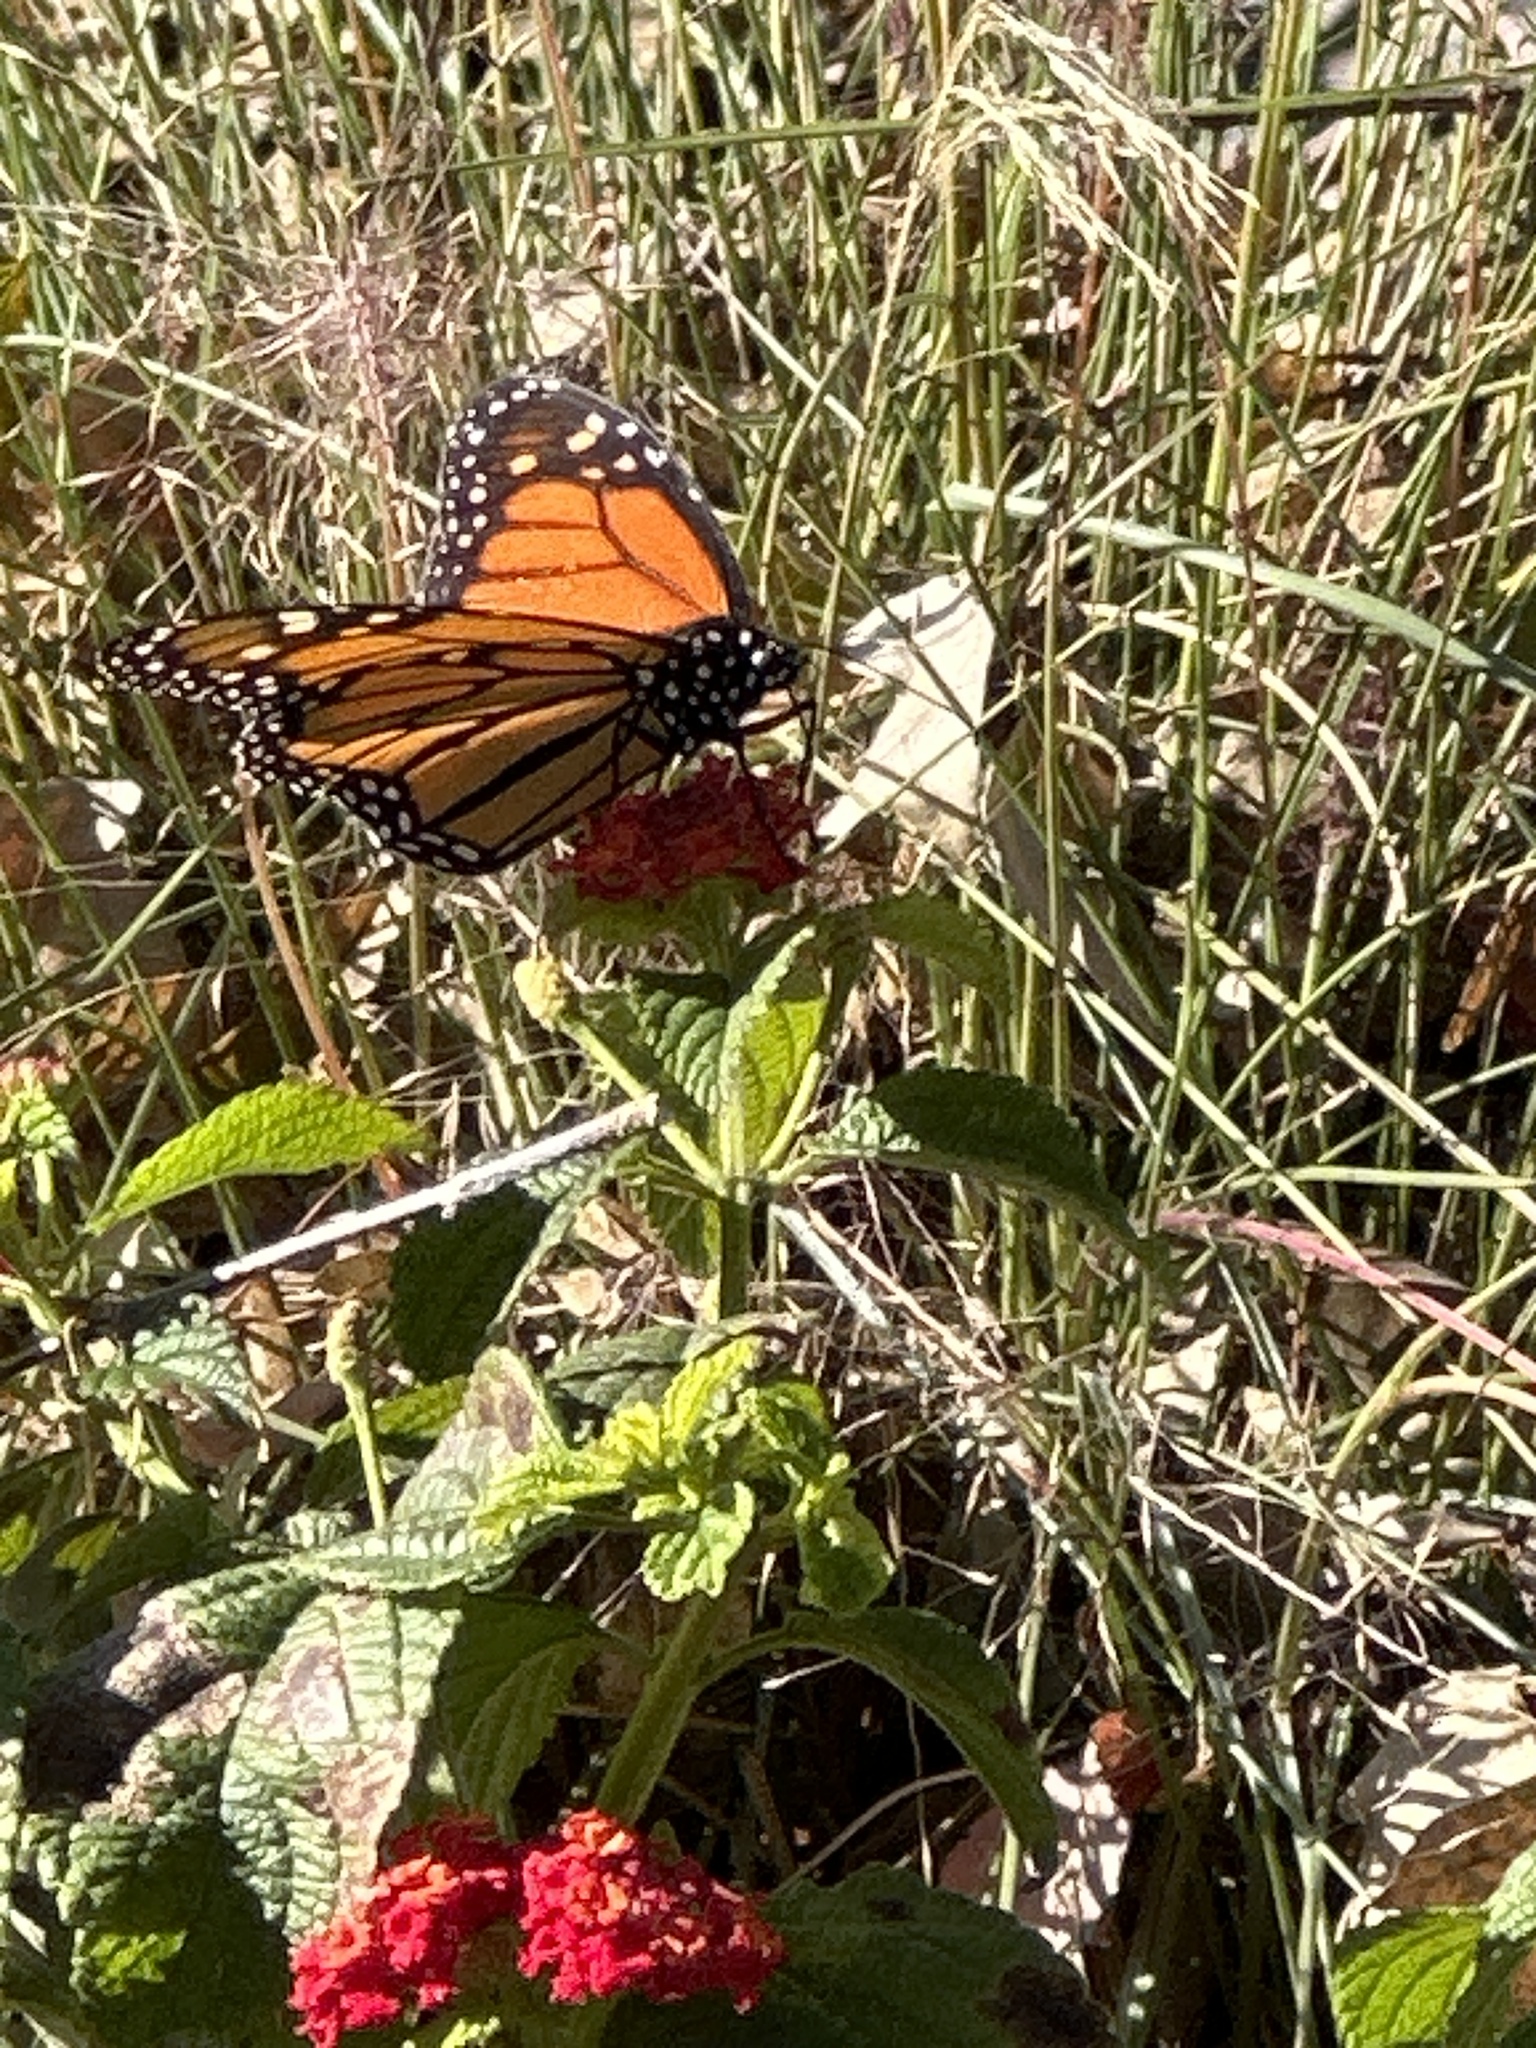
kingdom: Animalia
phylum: Arthropoda
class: Insecta
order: Lepidoptera
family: Nymphalidae
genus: Danaus
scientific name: Danaus plexippus
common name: Monarch
